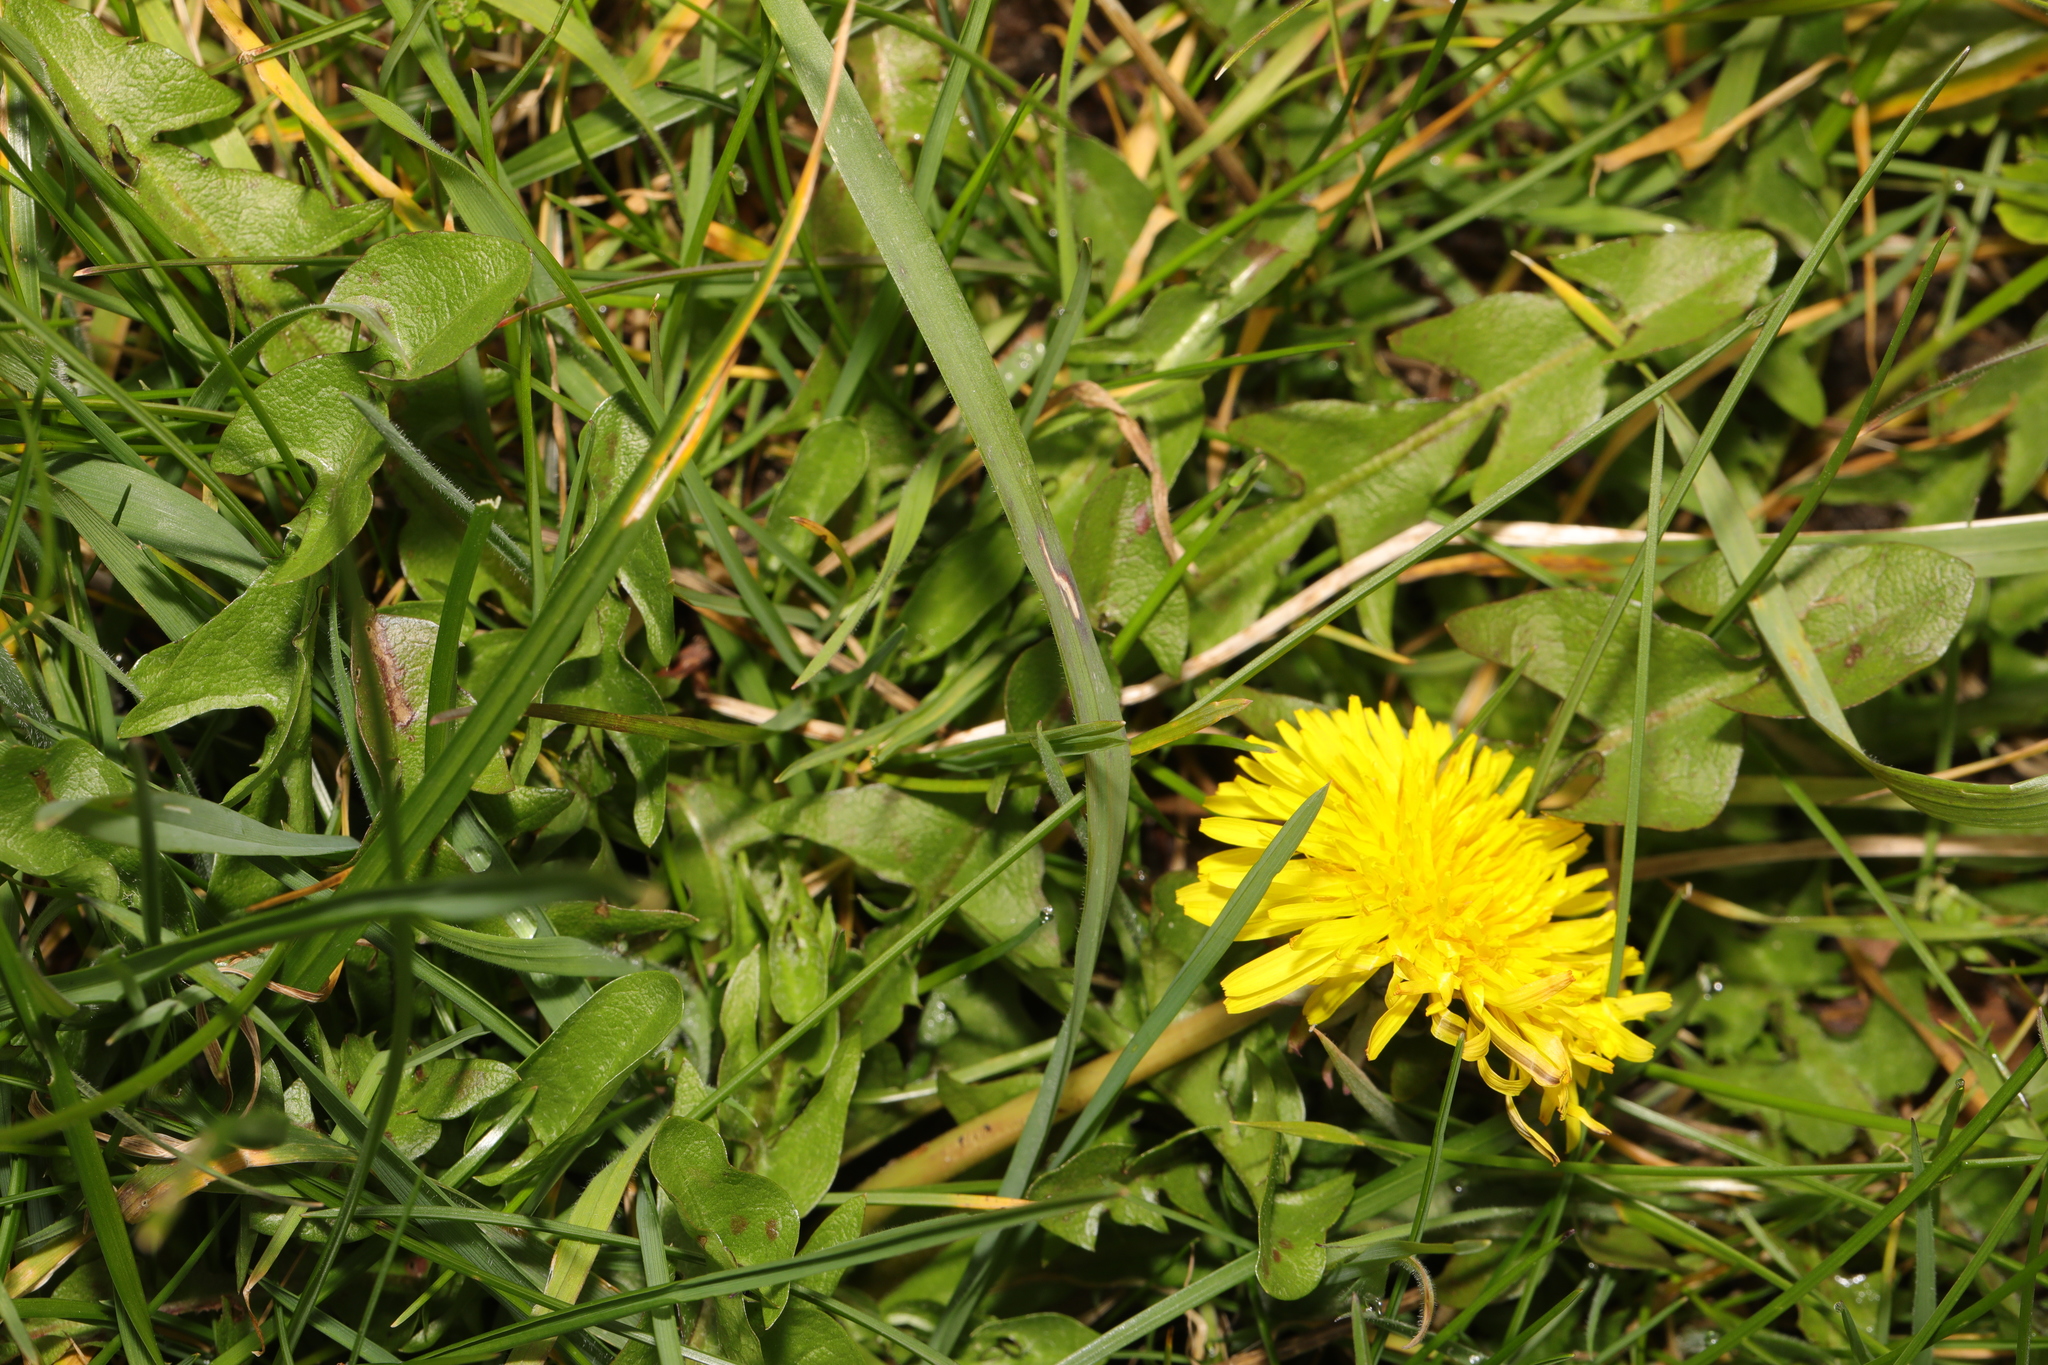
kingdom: Plantae
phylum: Tracheophyta
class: Magnoliopsida
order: Asterales
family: Asteraceae
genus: Taraxacum
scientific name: Taraxacum officinale
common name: Common dandelion
